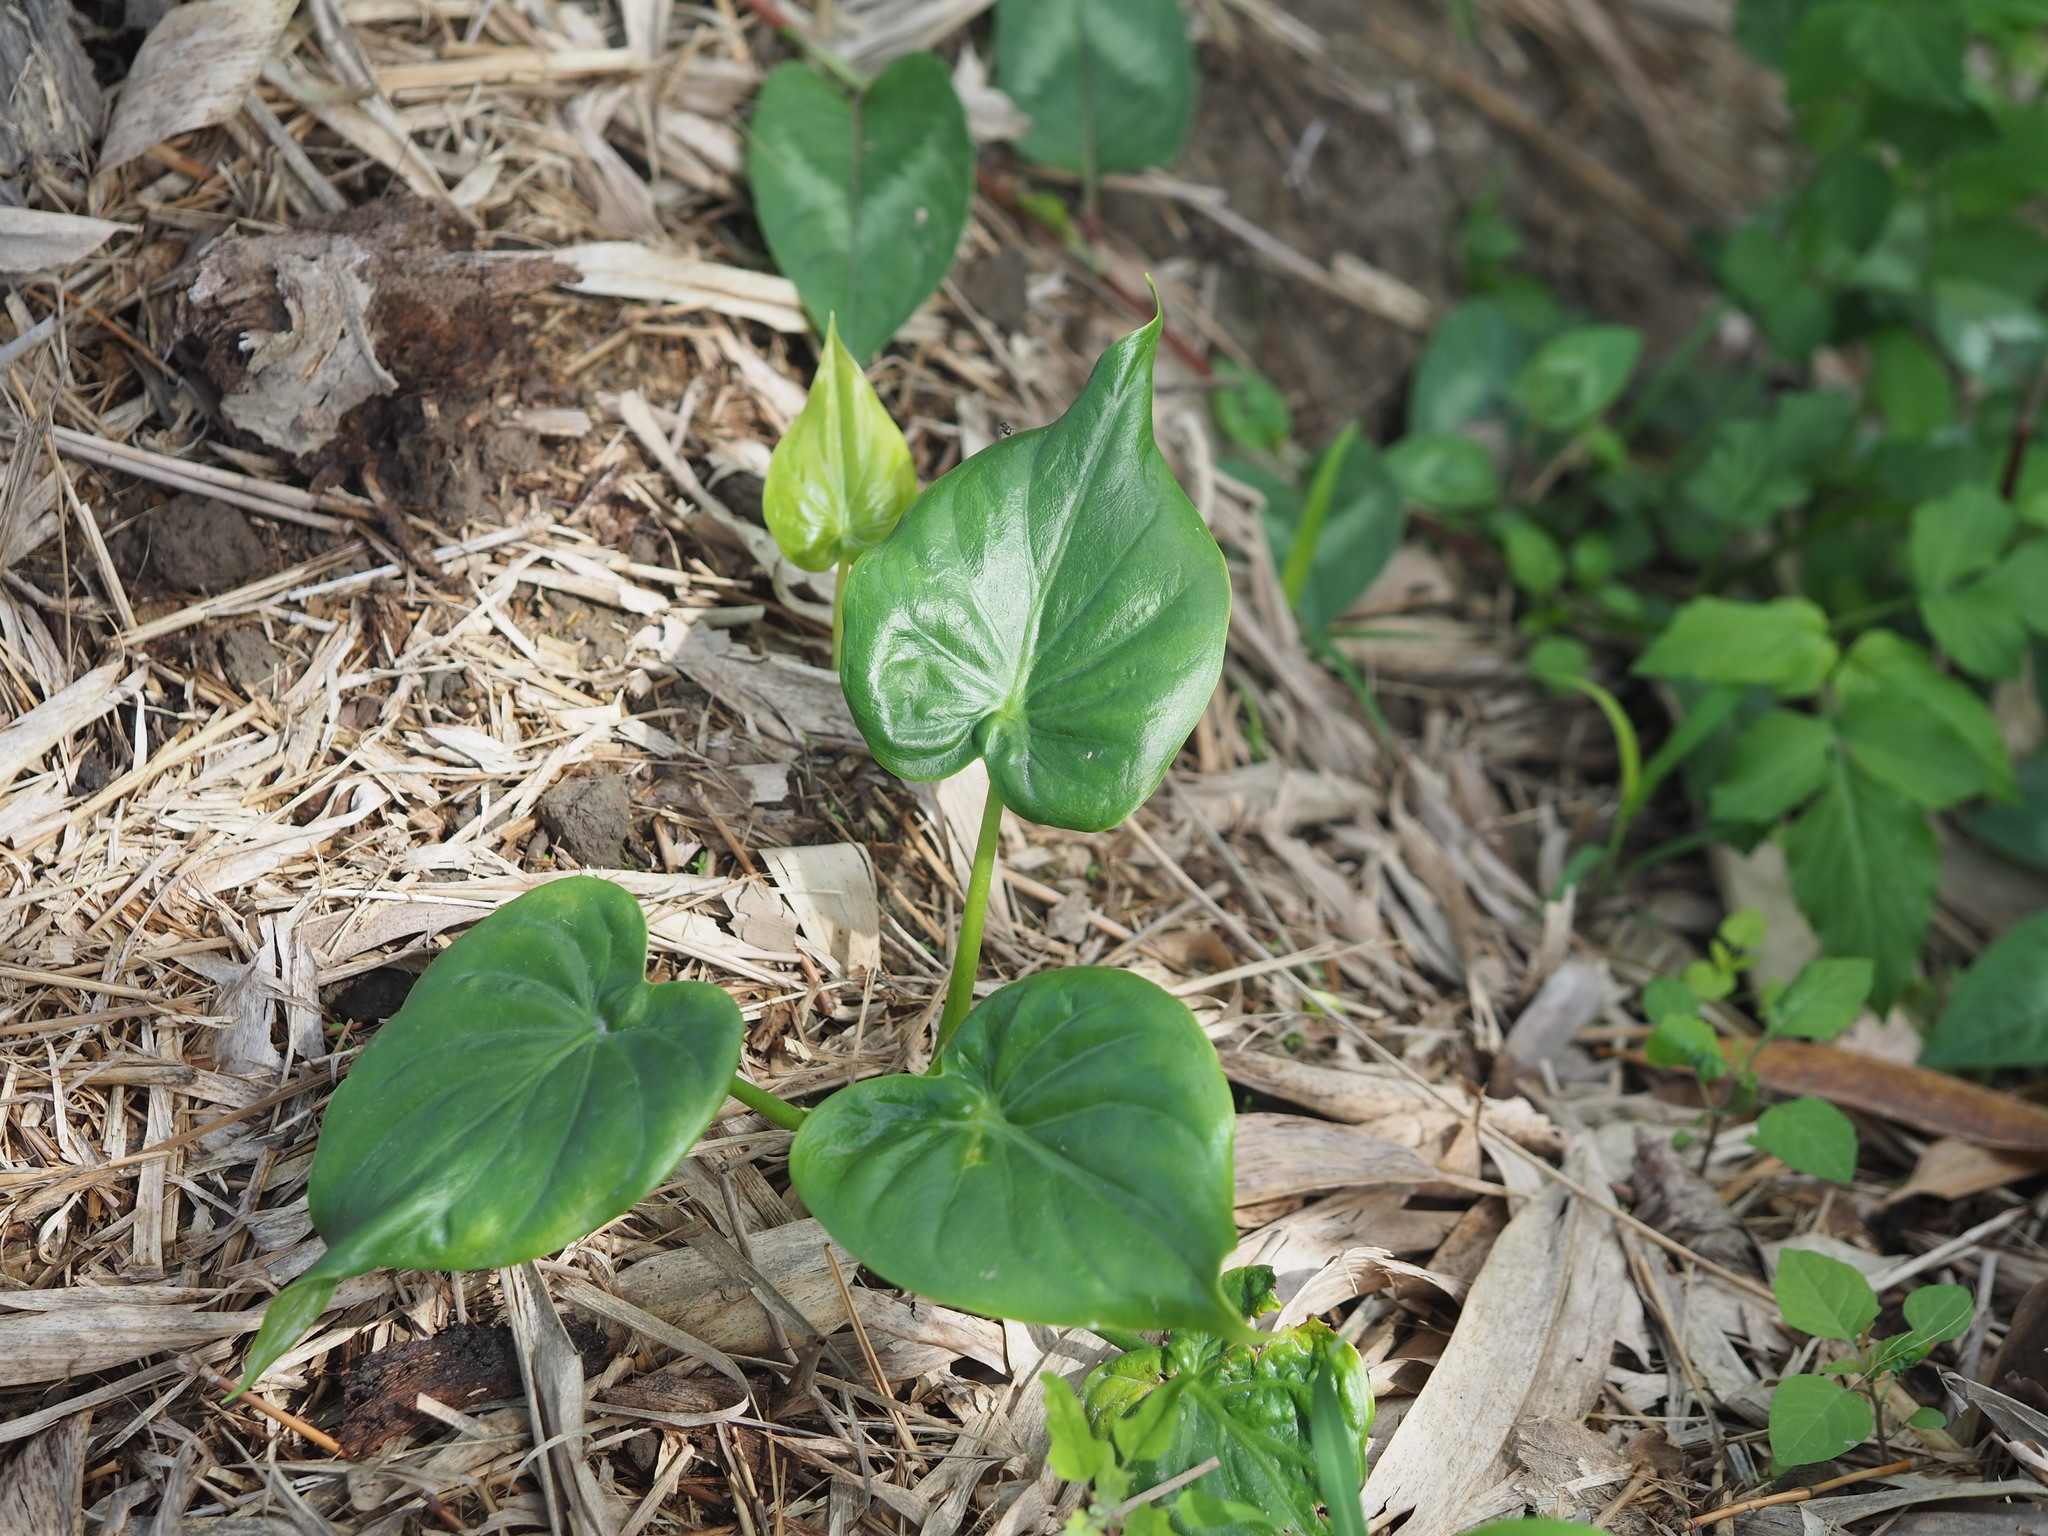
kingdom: Plantae
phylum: Tracheophyta
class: Liliopsida
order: Alismatales
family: Araceae
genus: Alocasia
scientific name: Alocasia cucullata
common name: Buddha's hand
